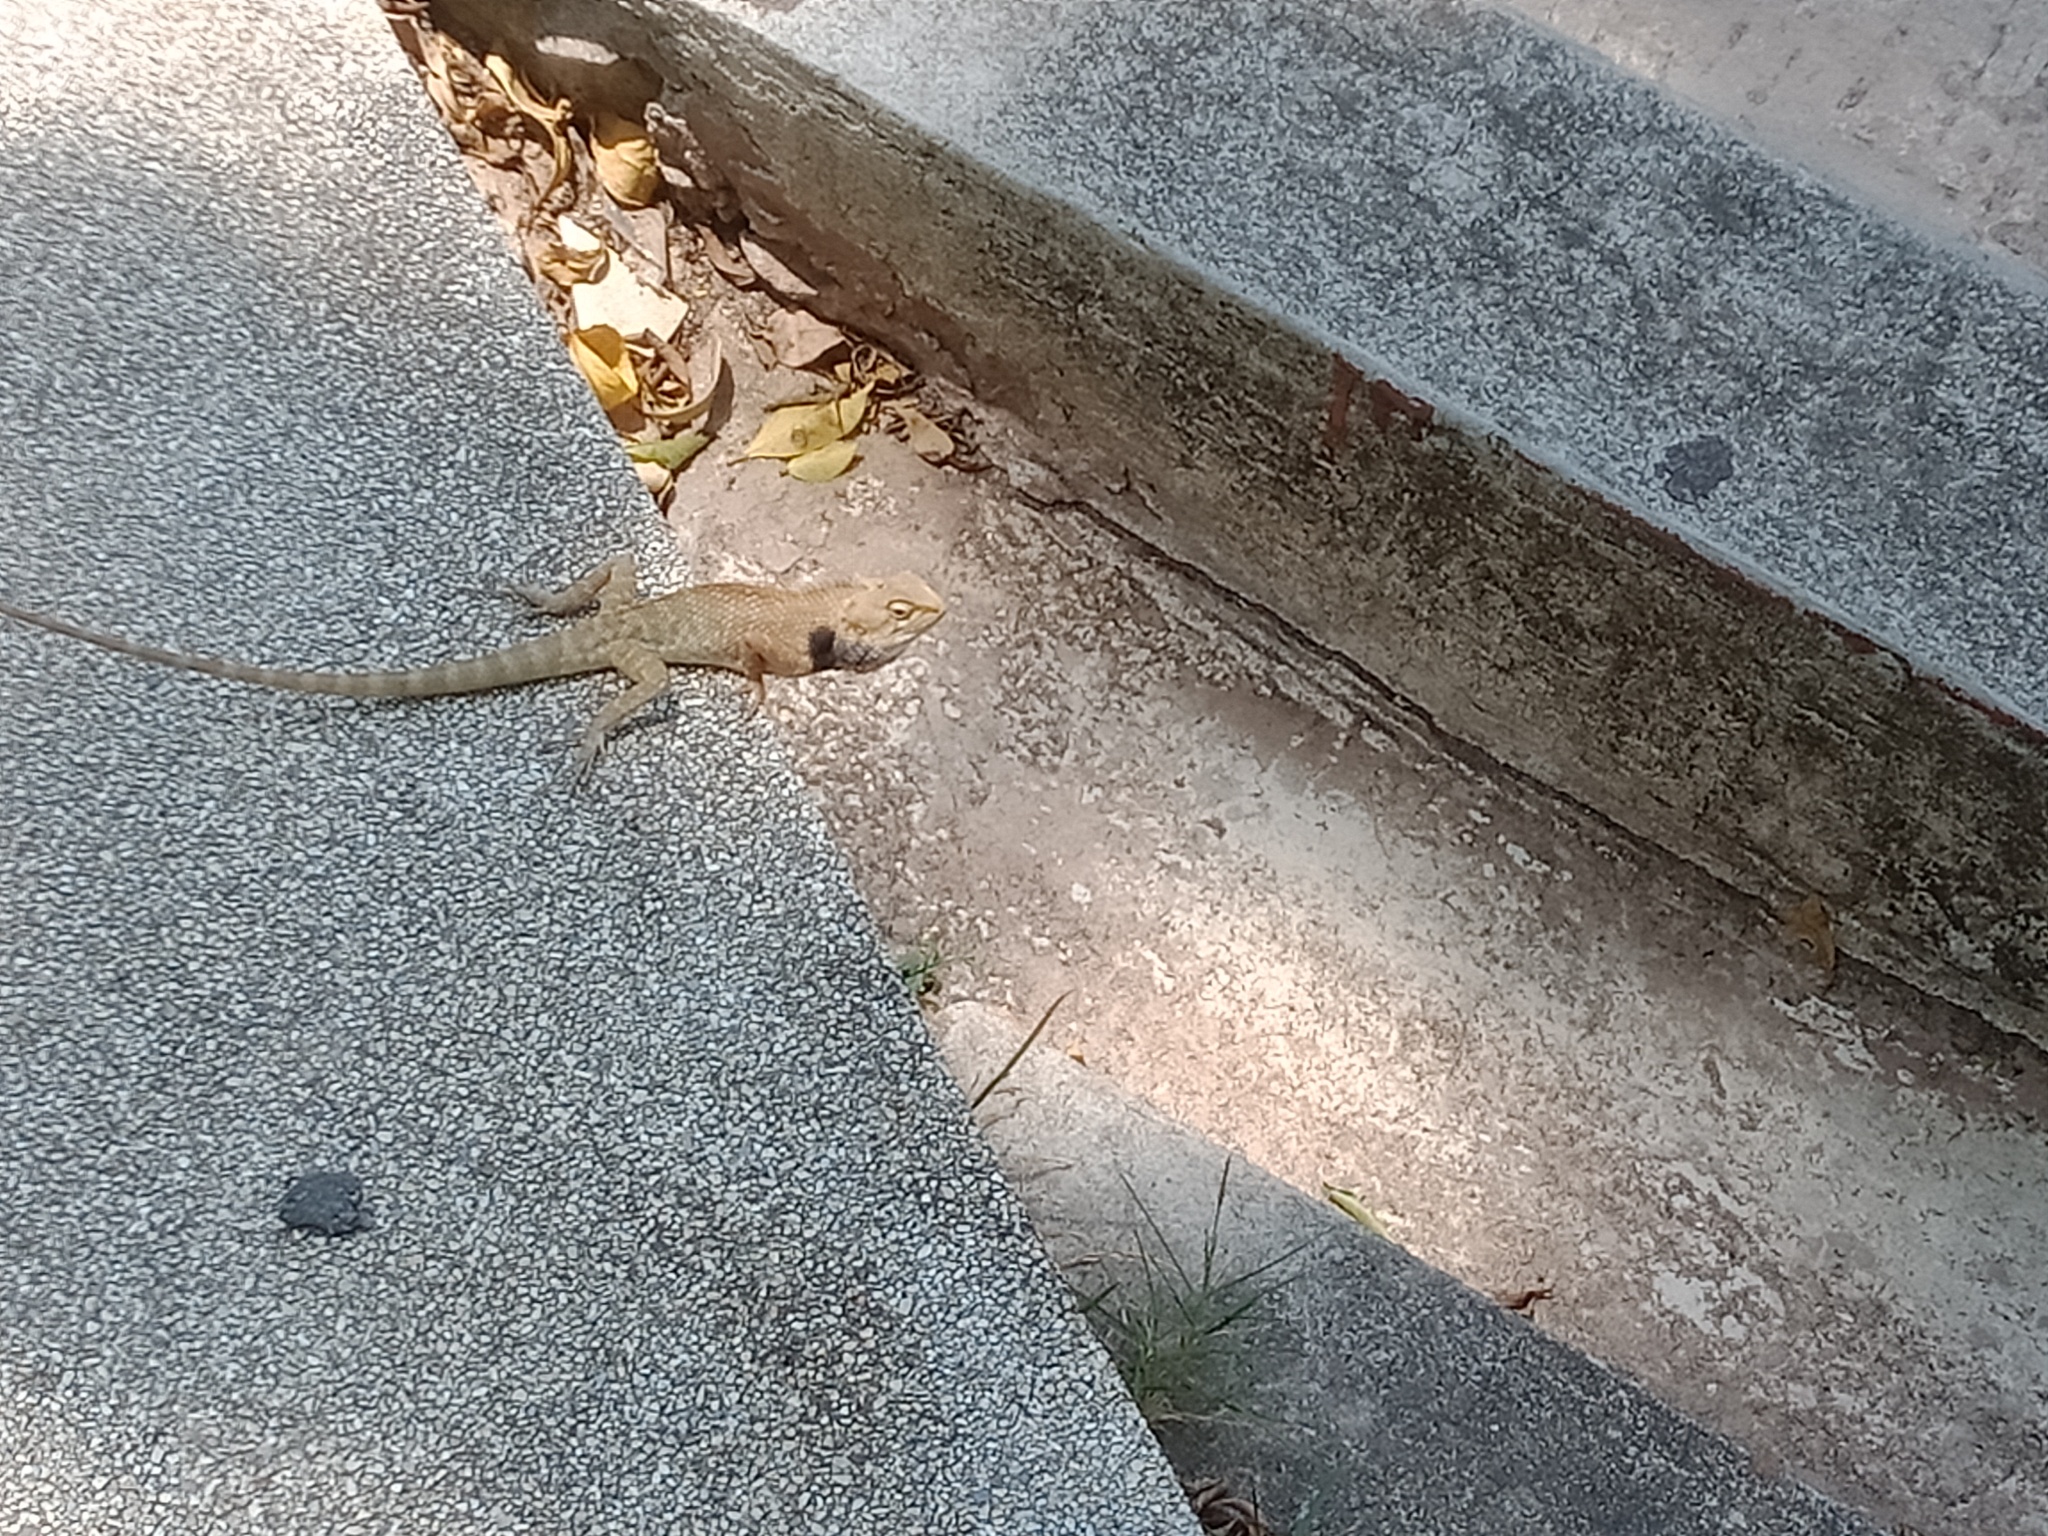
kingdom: Animalia
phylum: Chordata
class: Squamata
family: Agamidae
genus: Calotes
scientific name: Calotes versicolor
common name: Oriental garden lizard
